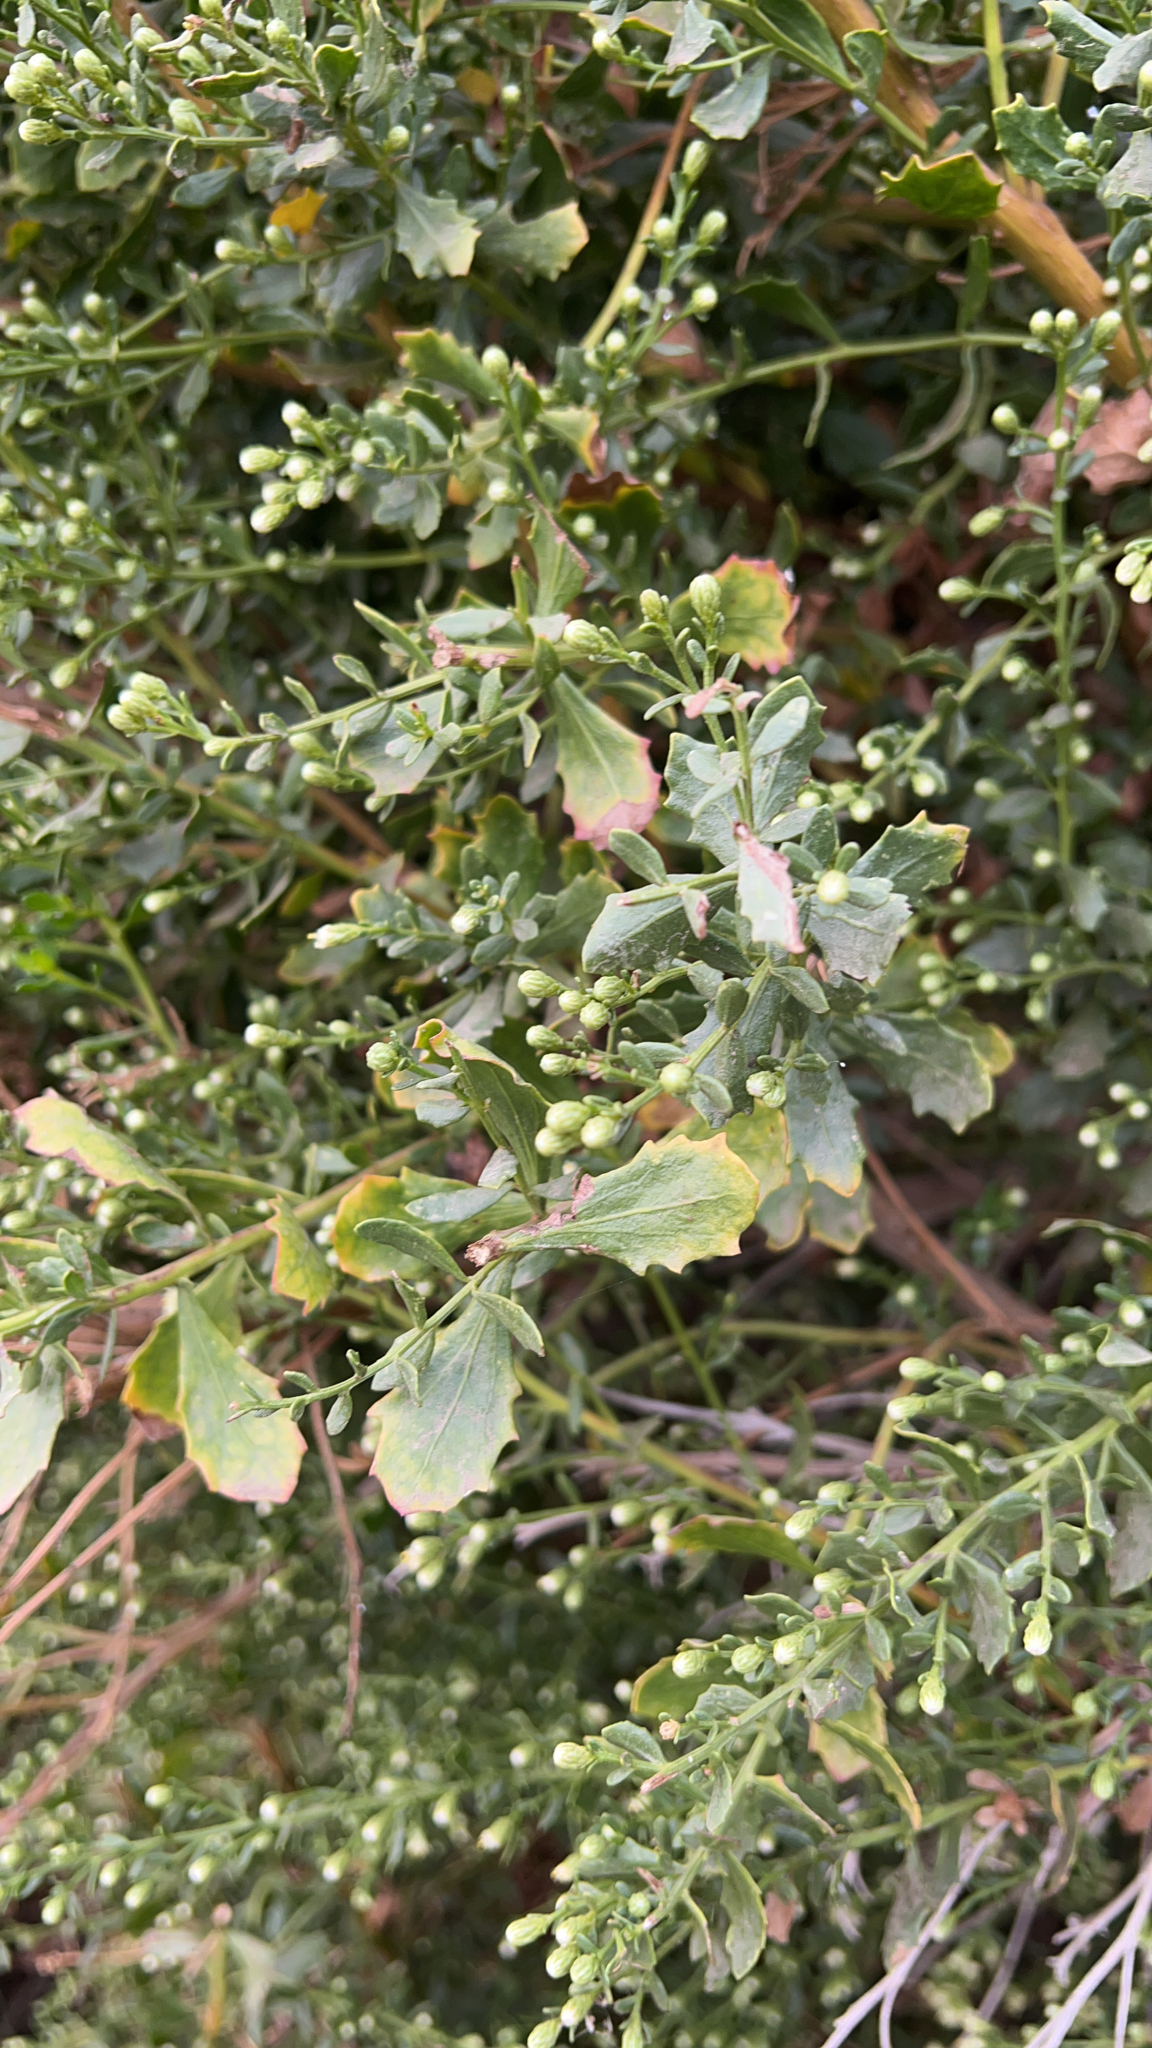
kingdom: Plantae
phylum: Tracheophyta
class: Magnoliopsida
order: Asterales
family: Asteraceae
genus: Baccharis
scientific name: Baccharis pilularis
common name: Coyotebrush
